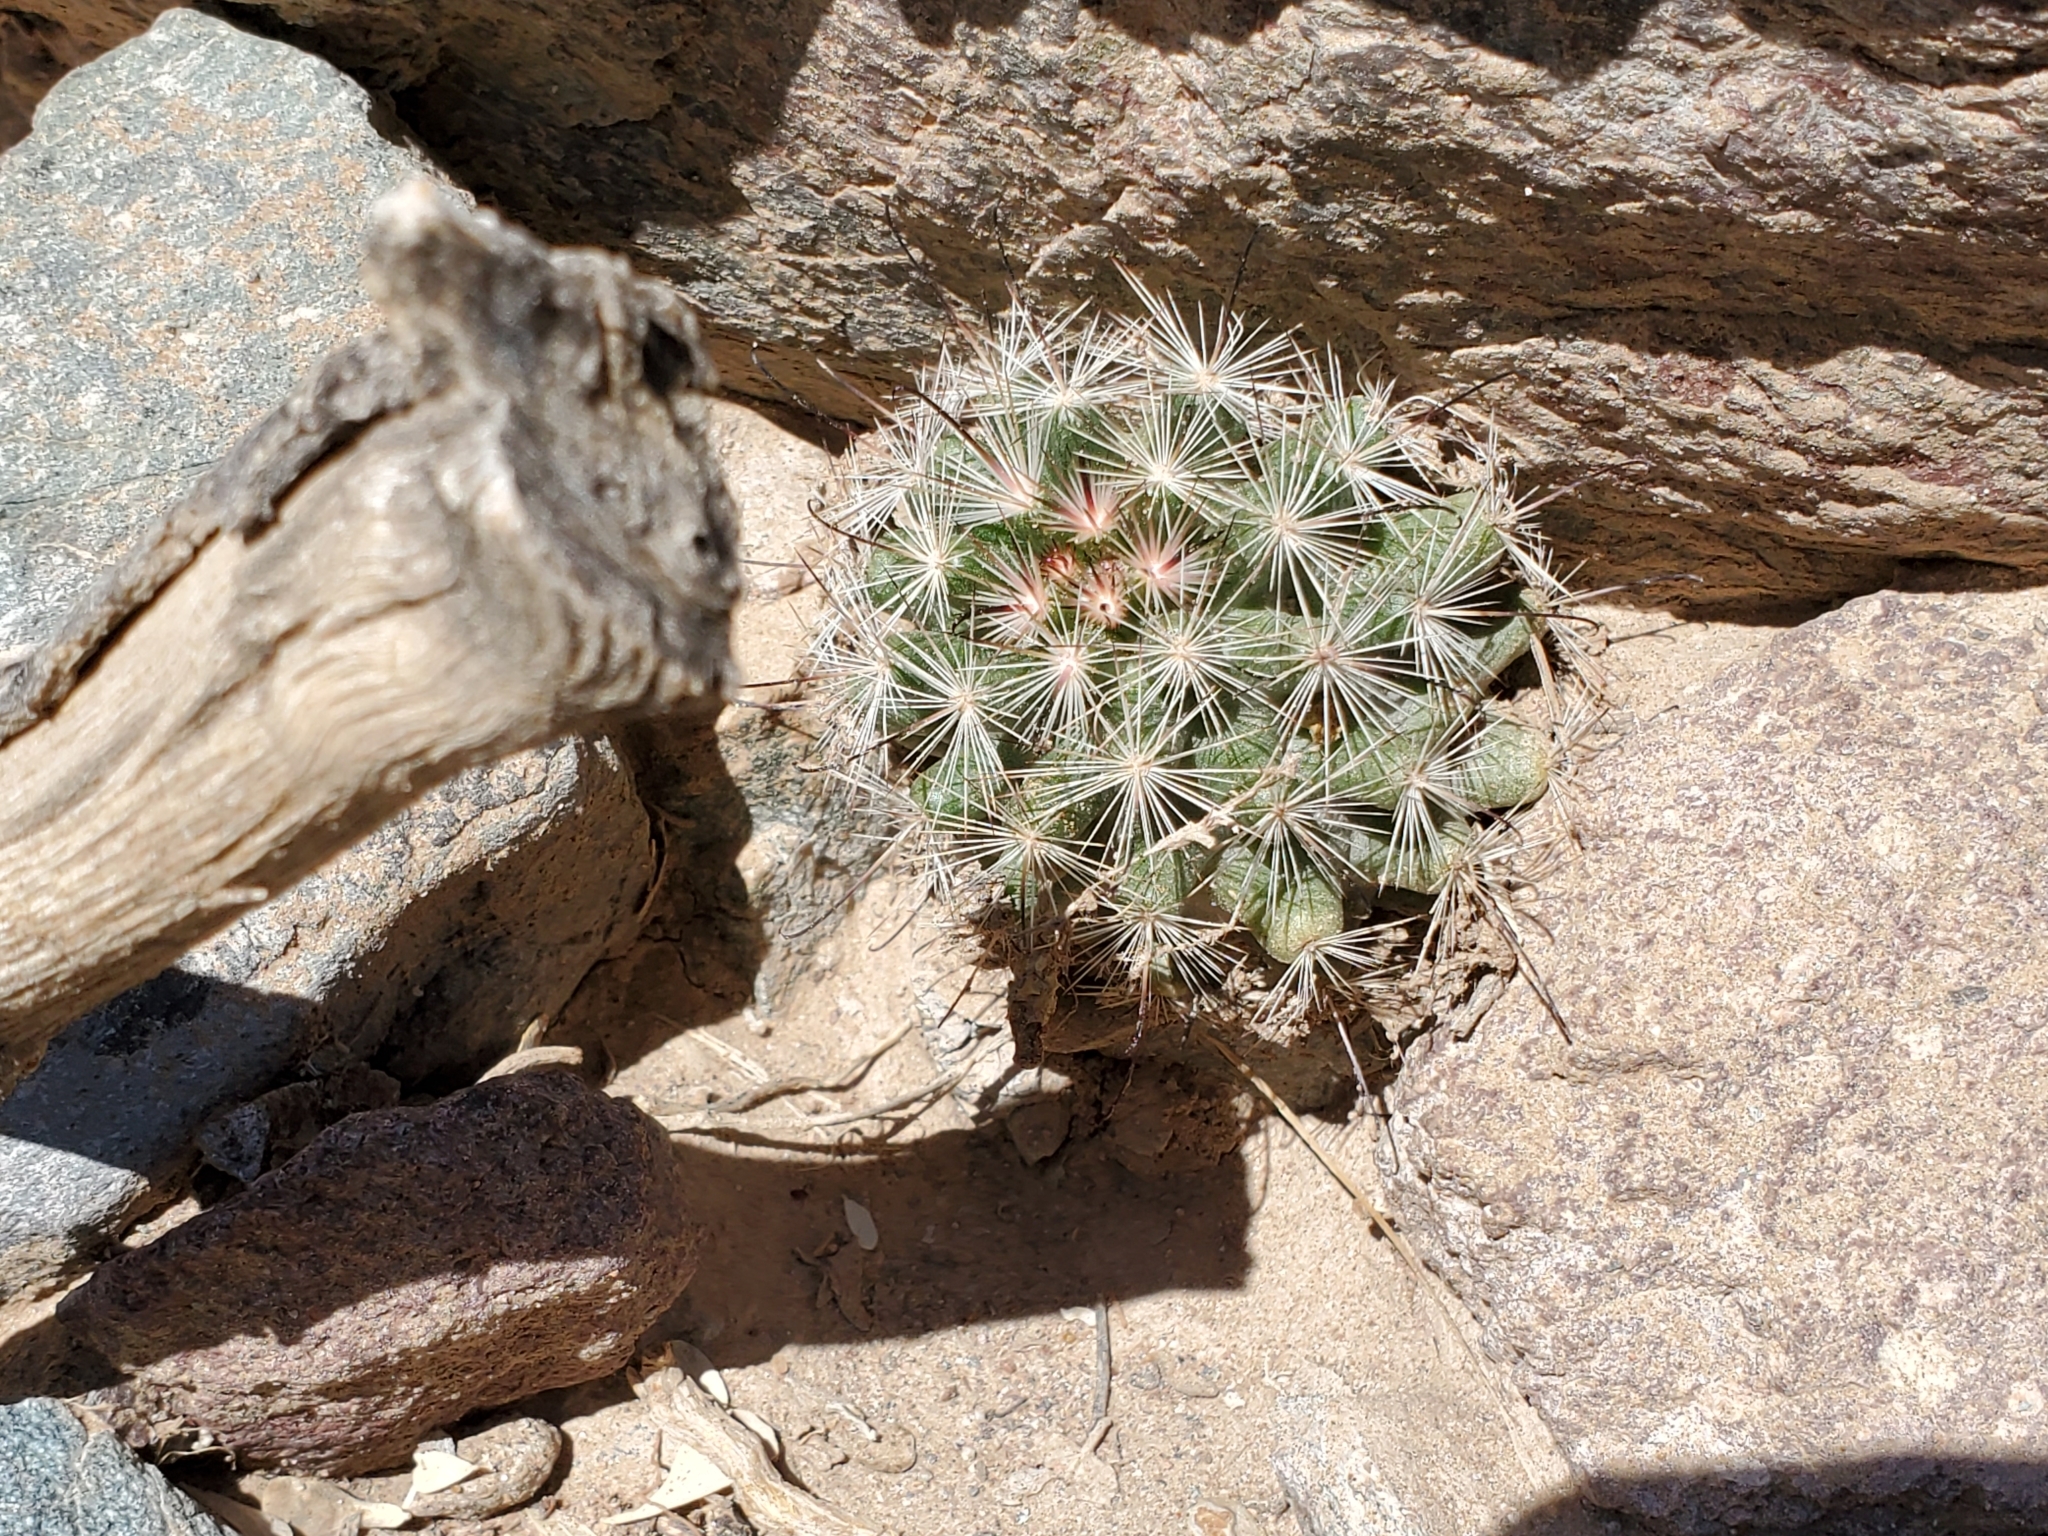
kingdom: Plantae
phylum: Tracheophyta
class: Magnoliopsida
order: Caryophyllales
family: Cactaceae
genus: Cochemiea
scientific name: Cochemiea tetrancistra
